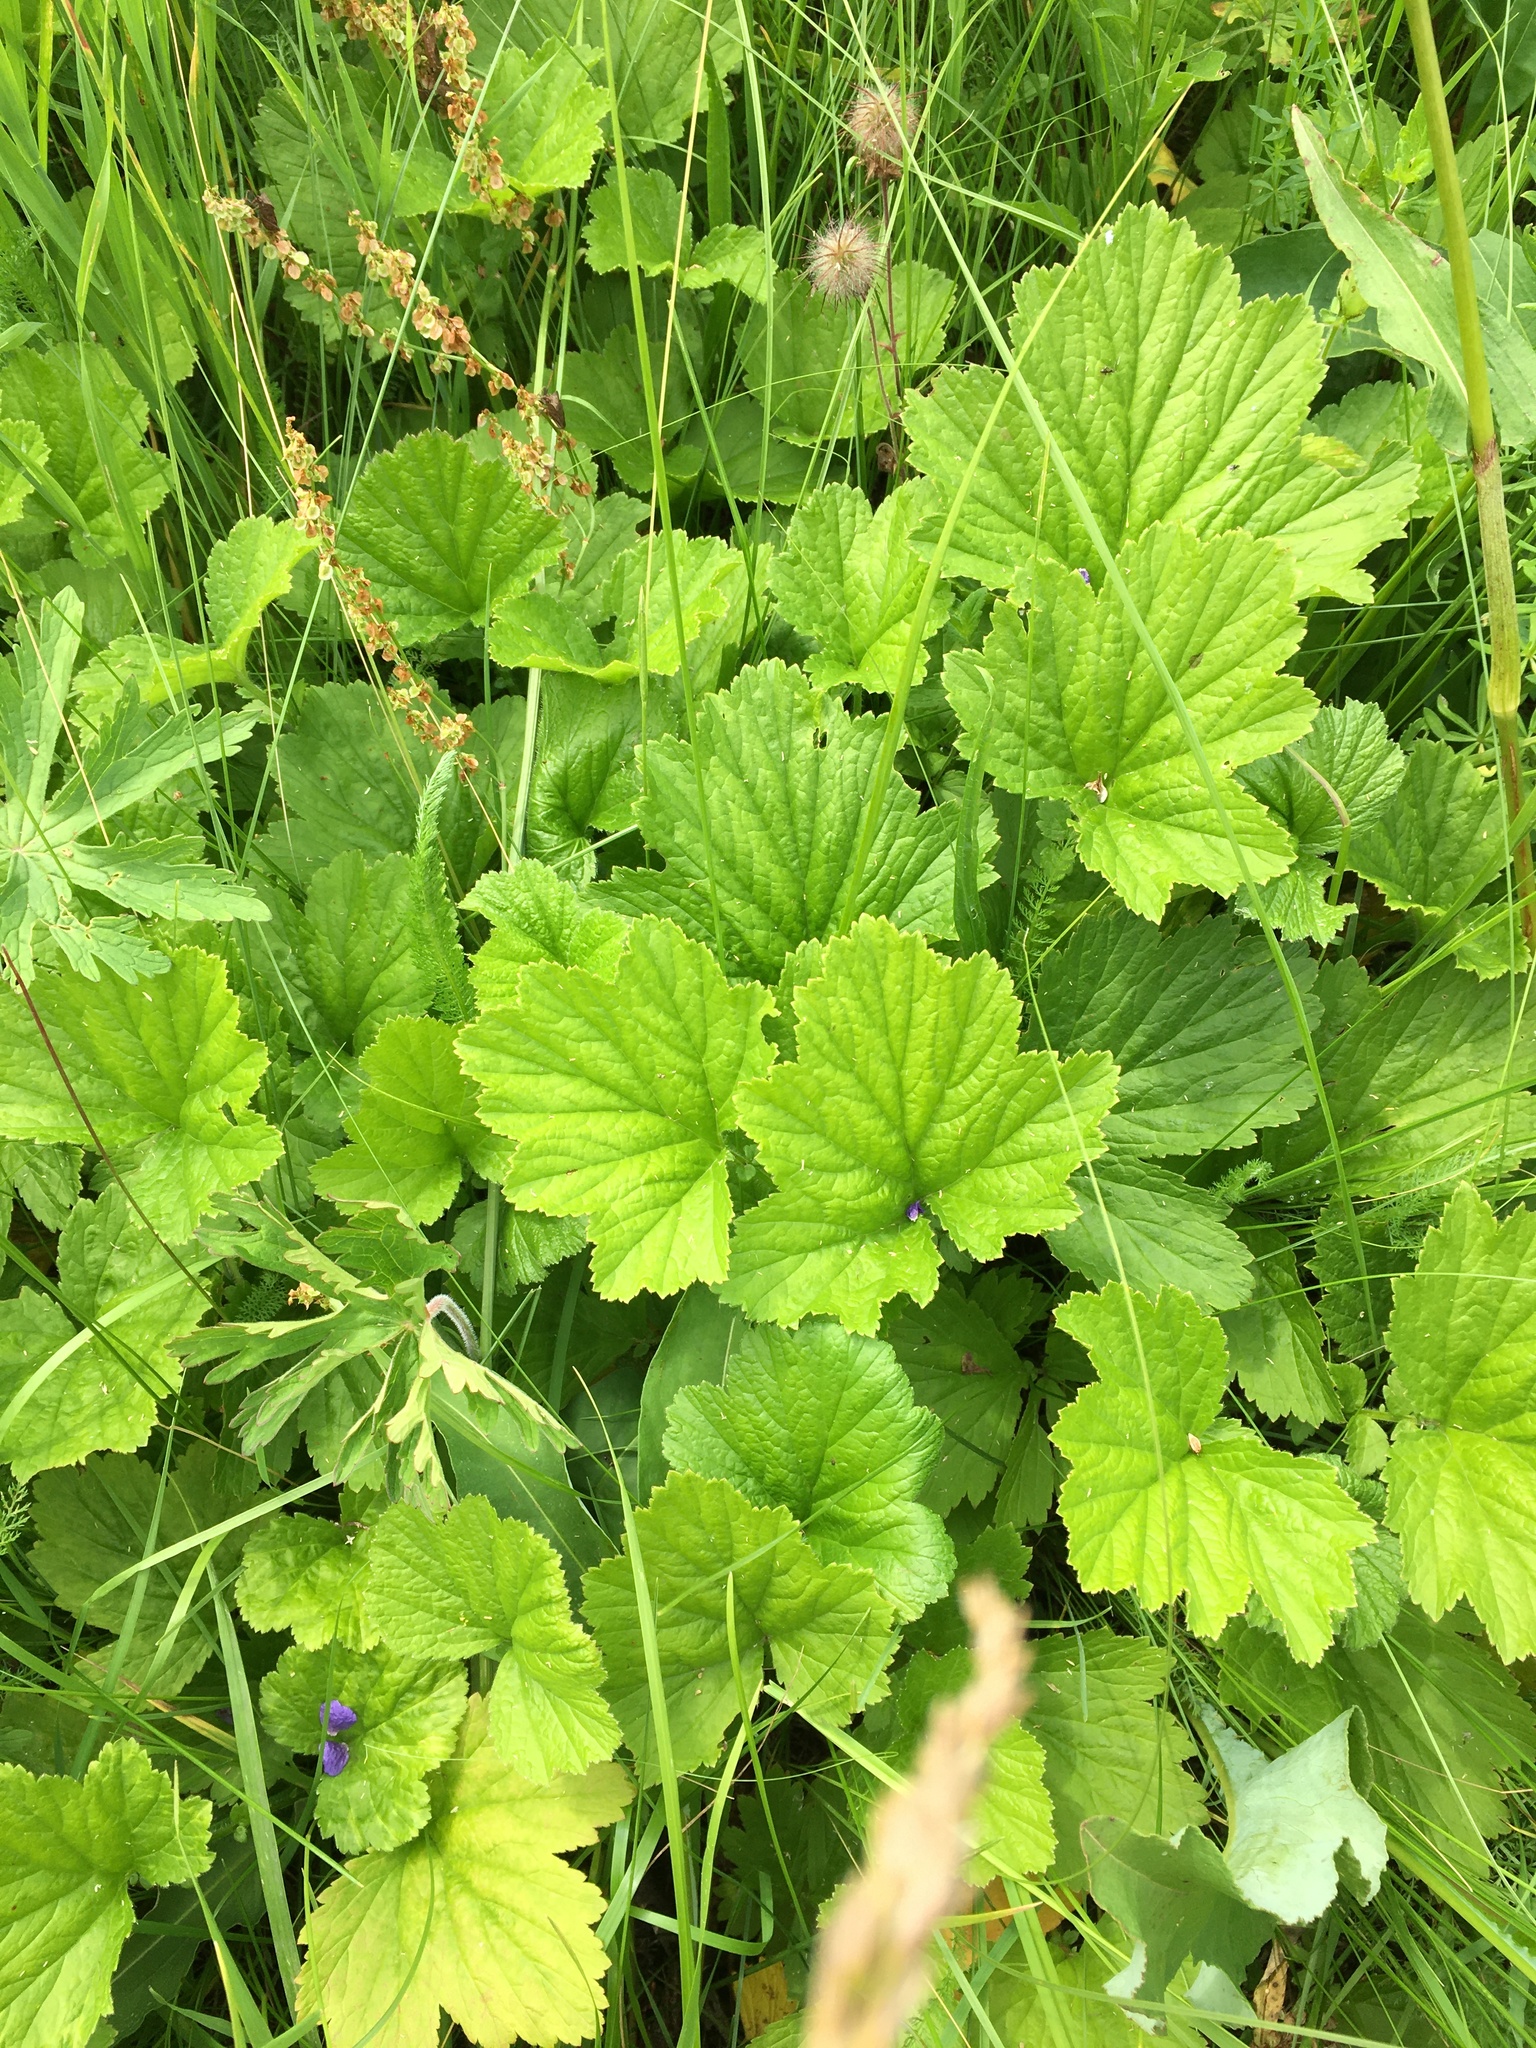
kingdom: Plantae
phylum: Tracheophyta
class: Magnoliopsida
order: Rosales
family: Rosaceae
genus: Geum
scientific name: Geum rivale
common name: Water avens
